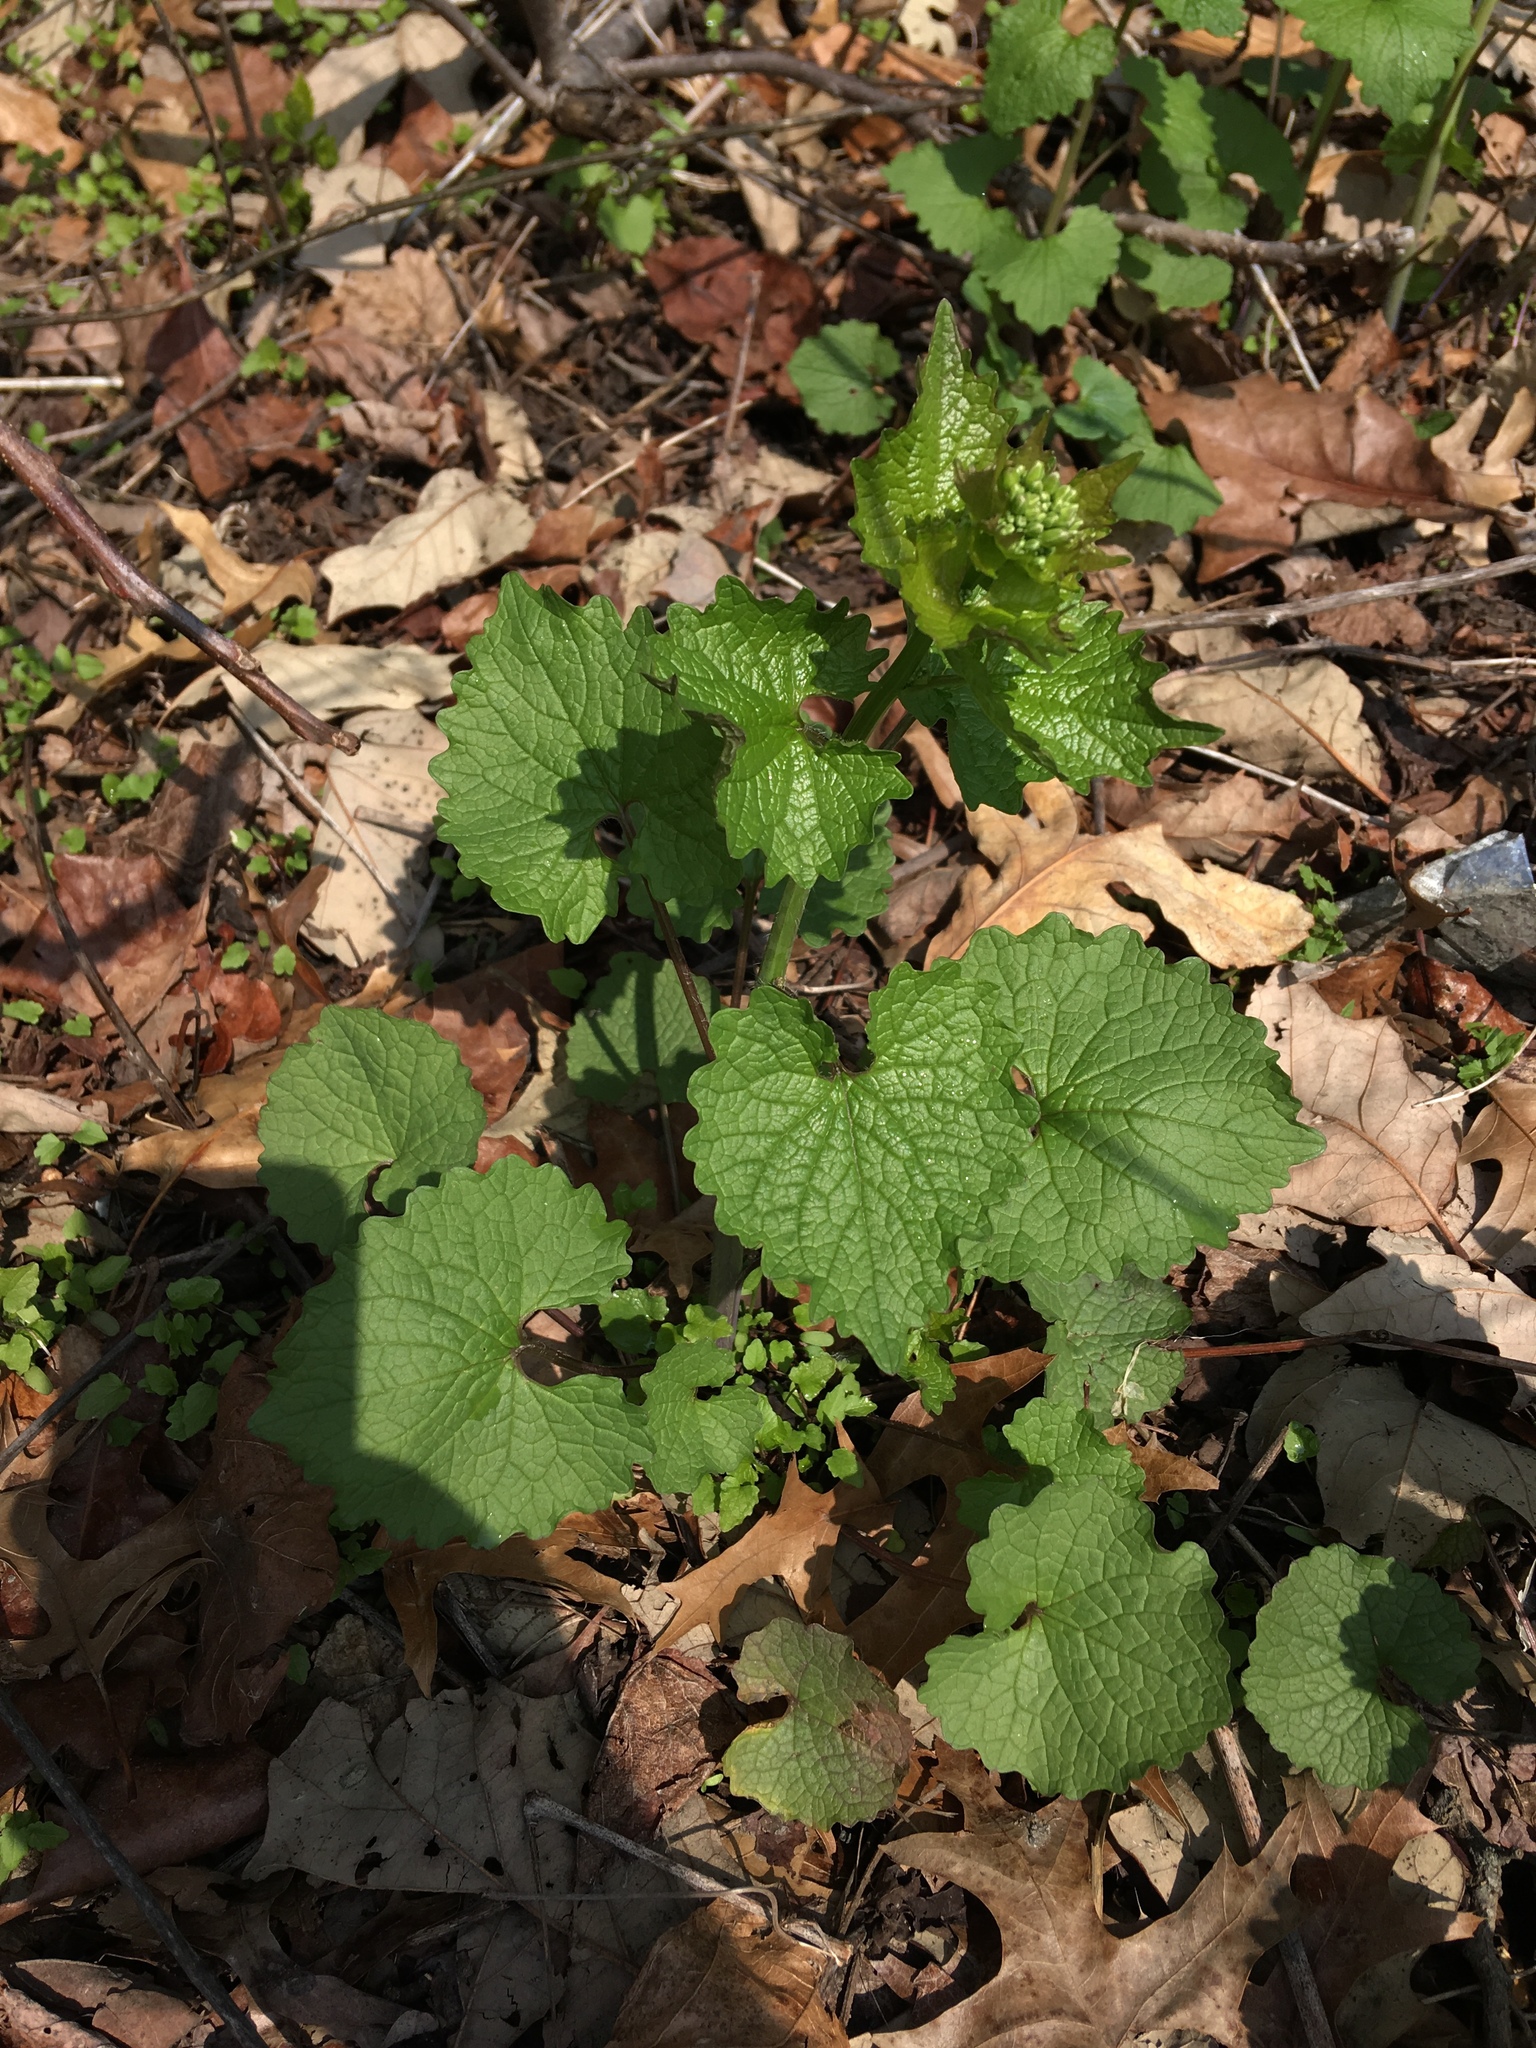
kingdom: Plantae
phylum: Tracheophyta
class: Magnoliopsida
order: Brassicales
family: Brassicaceae
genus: Alliaria
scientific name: Alliaria petiolata
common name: Garlic mustard
